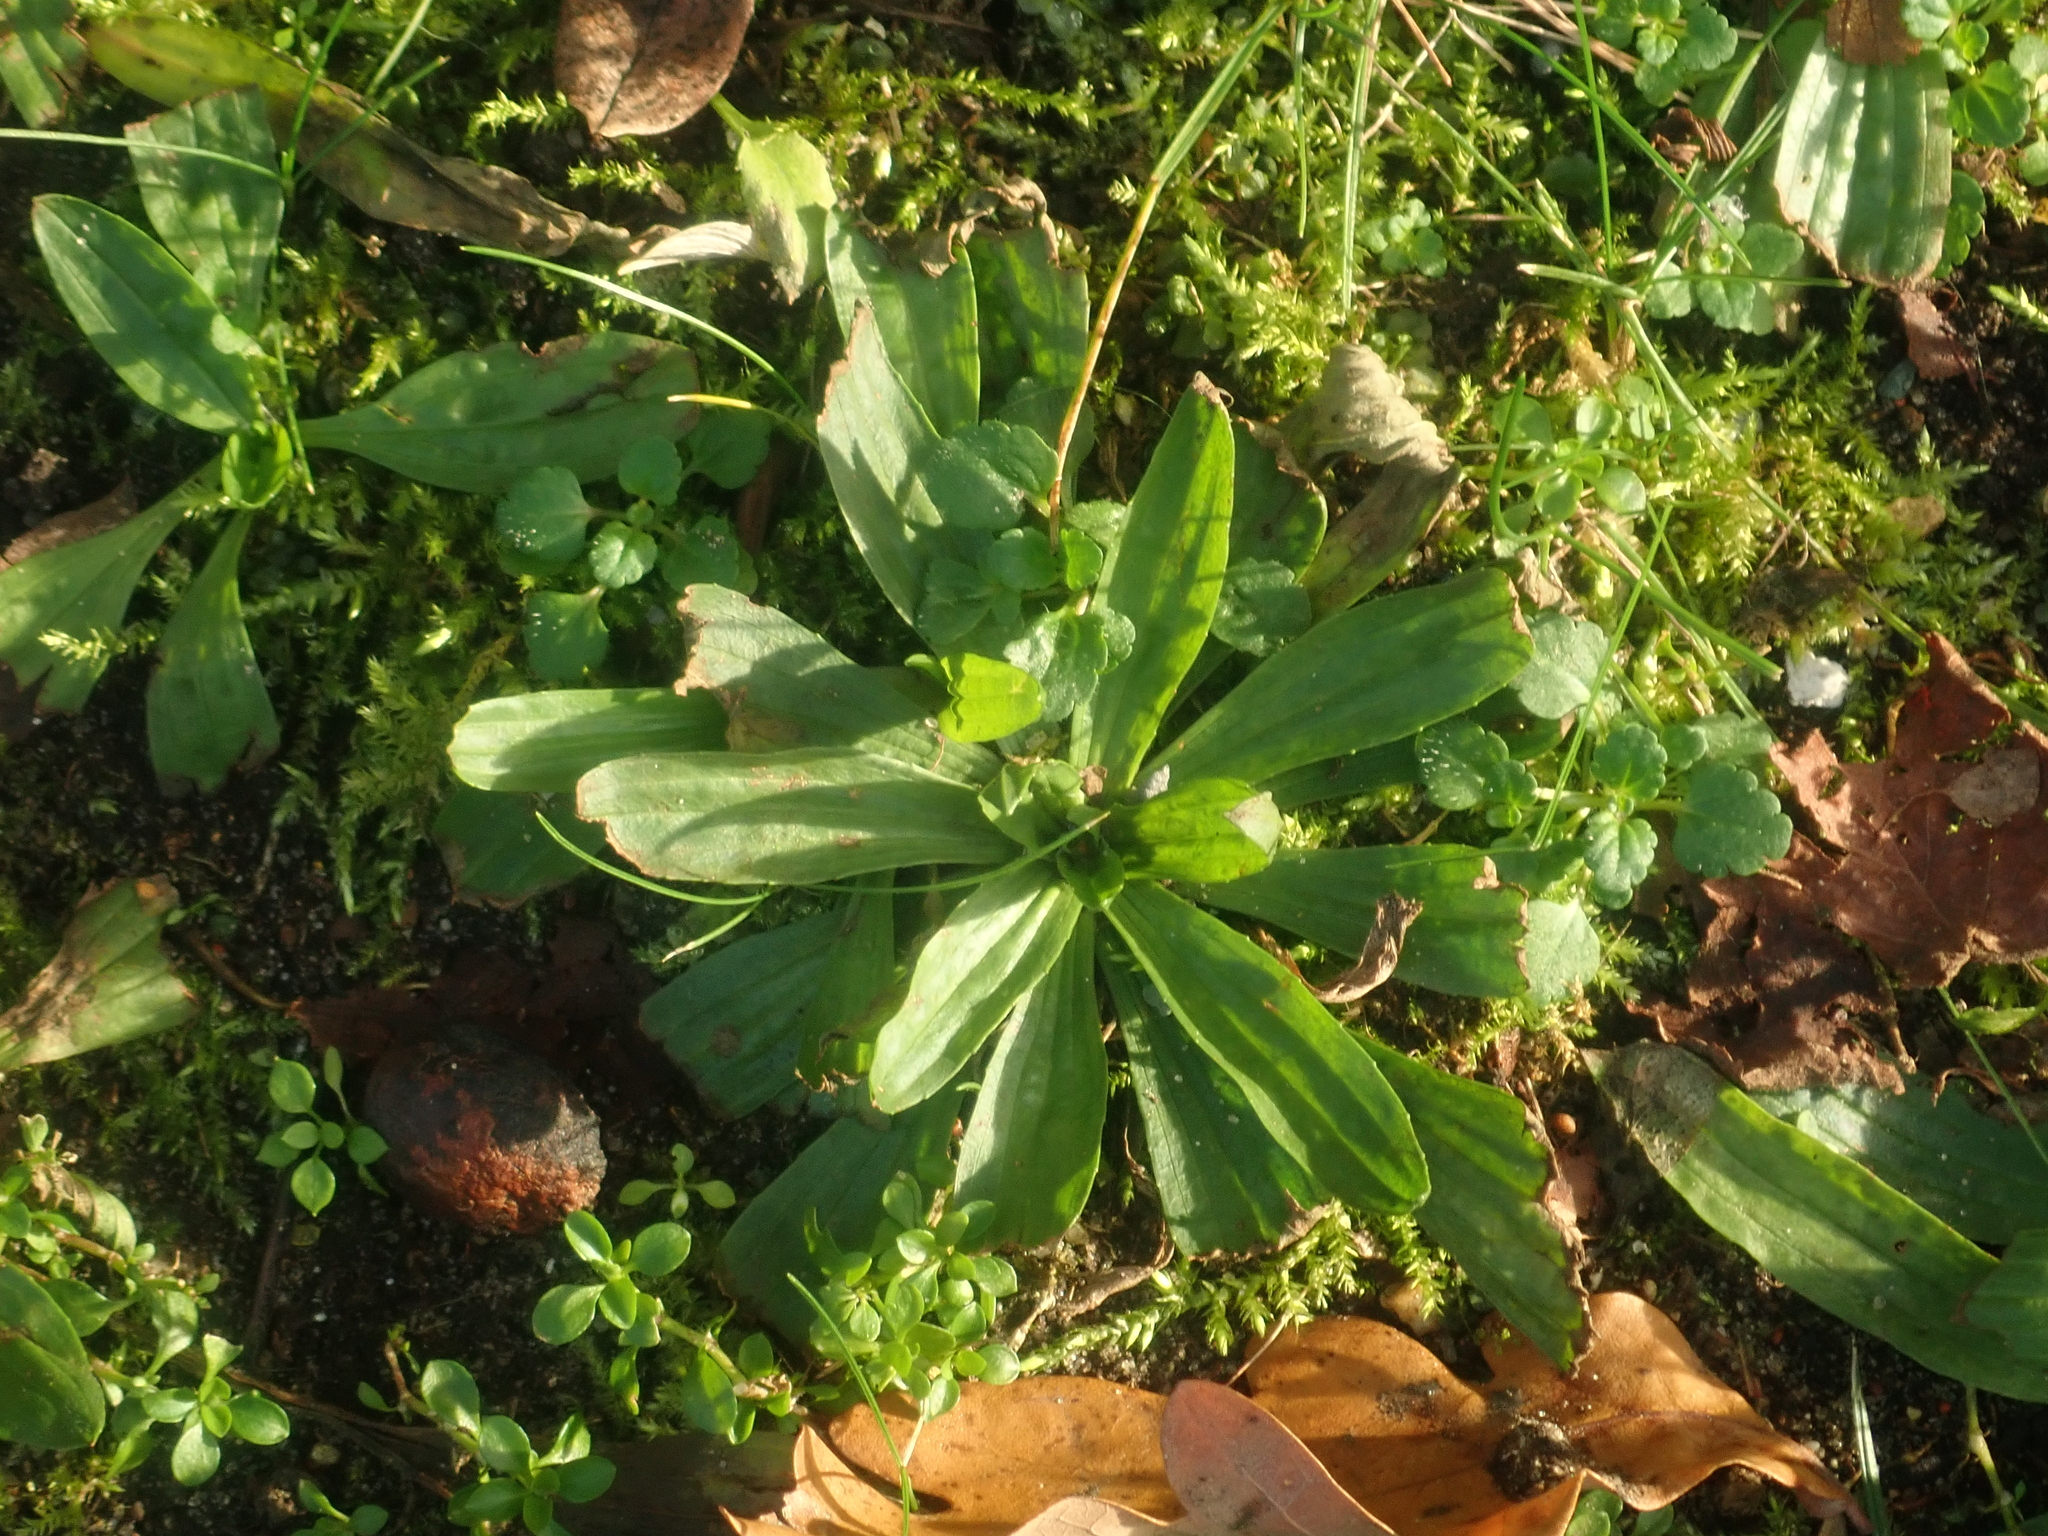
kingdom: Plantae
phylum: Tracheophyta
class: Magnoliopsida
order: Lamiales
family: Plantaginaceae
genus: Plantago
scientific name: Plantago lanceolata
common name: Ribwort plantain
